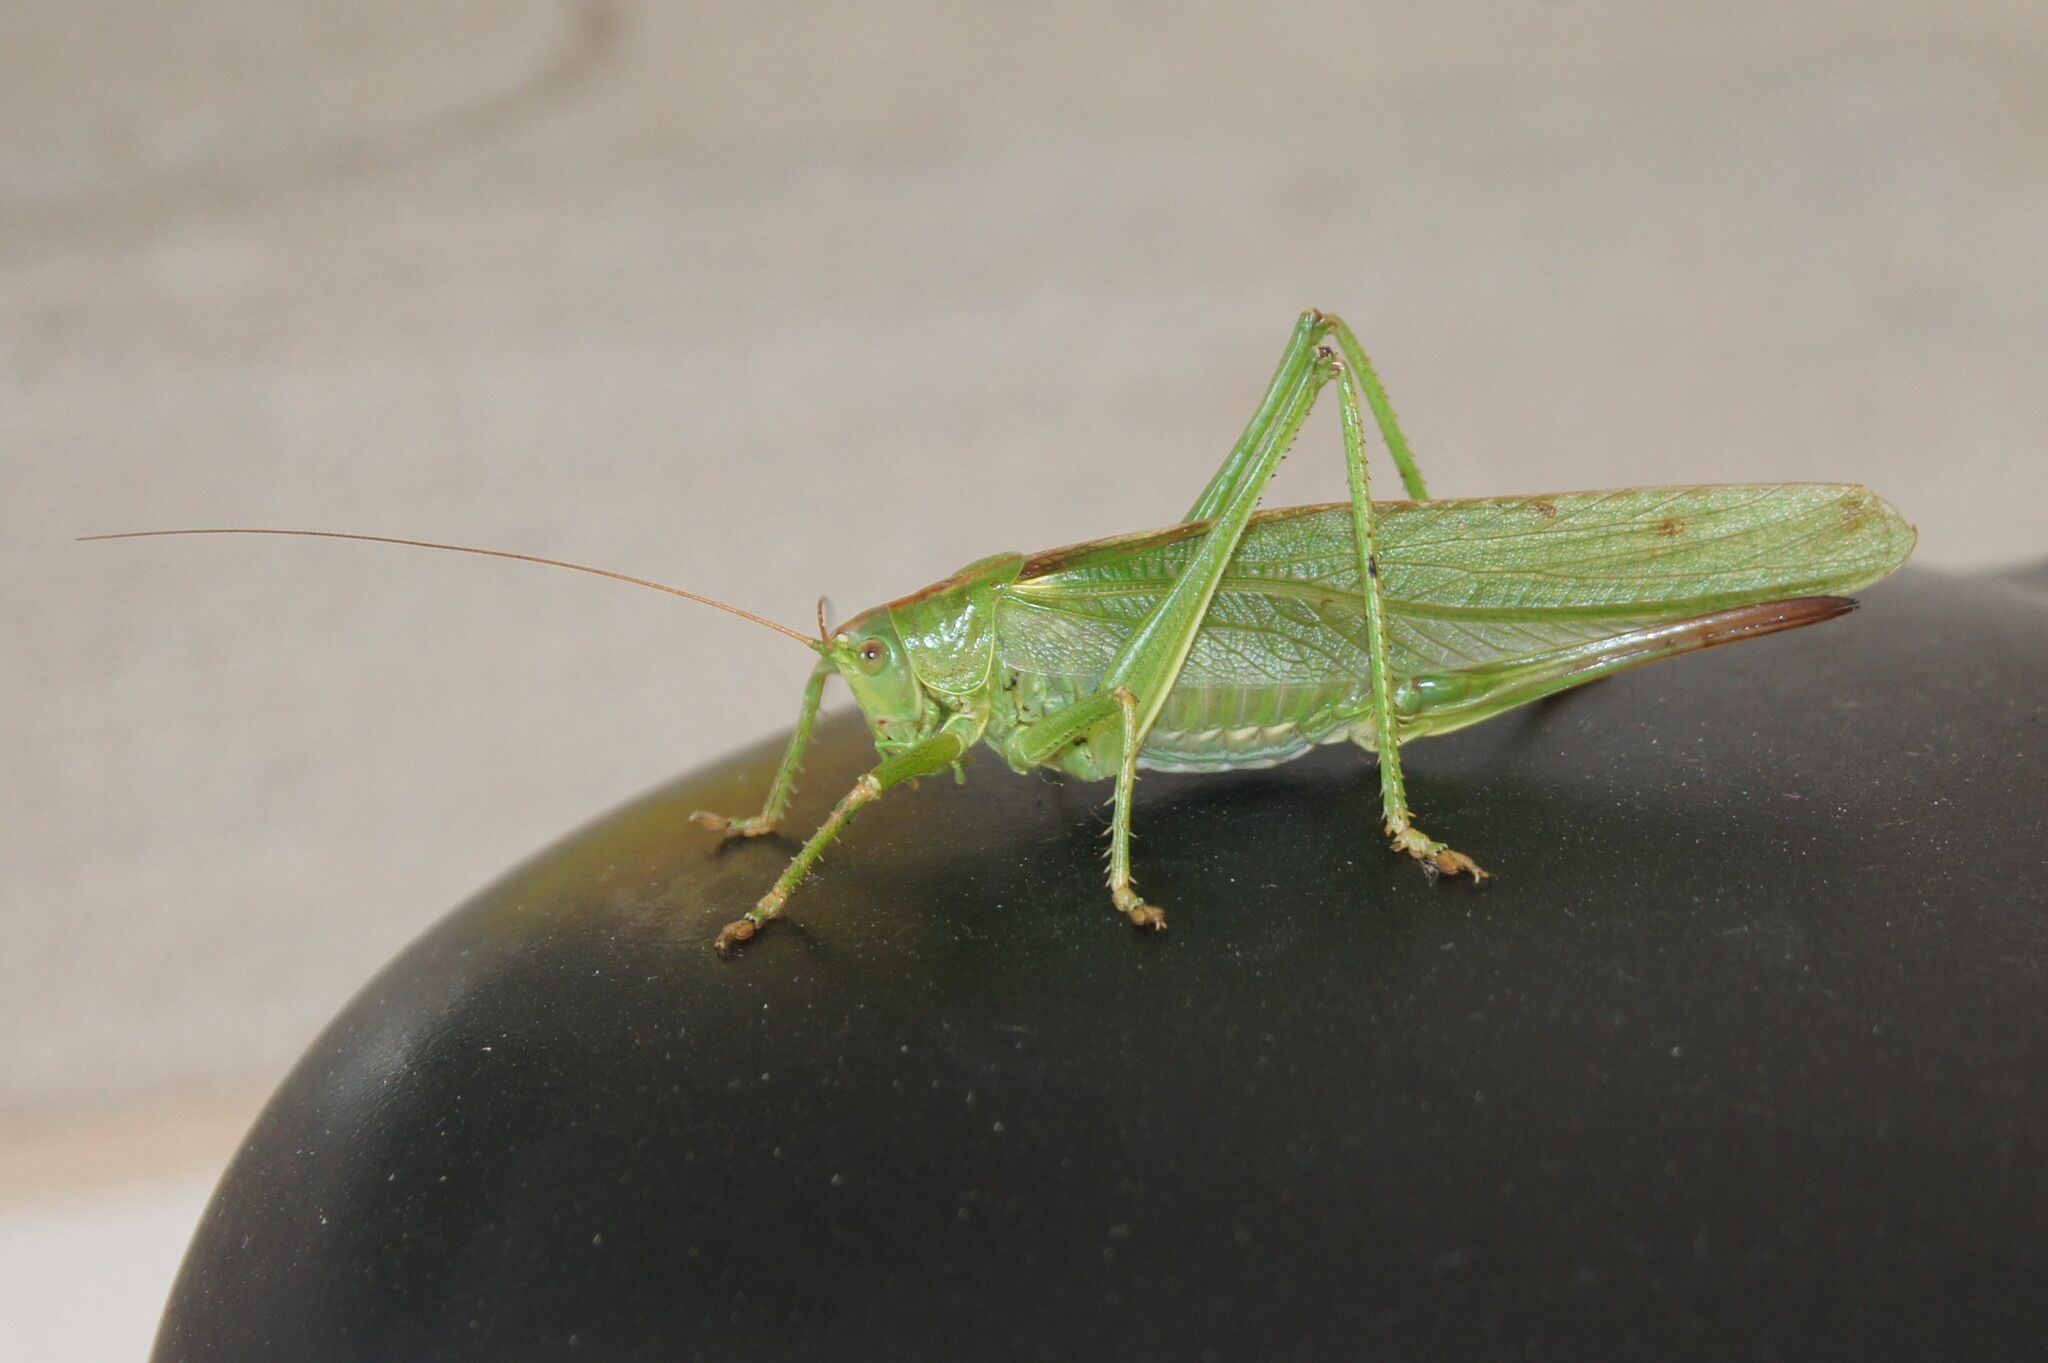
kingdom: Animalia
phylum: Arthropoda
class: Insecta
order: Orthoptera
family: Tettigoniidae
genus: Tettigonia
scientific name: Tettigonia viridissima
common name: Great green bush-cricket
